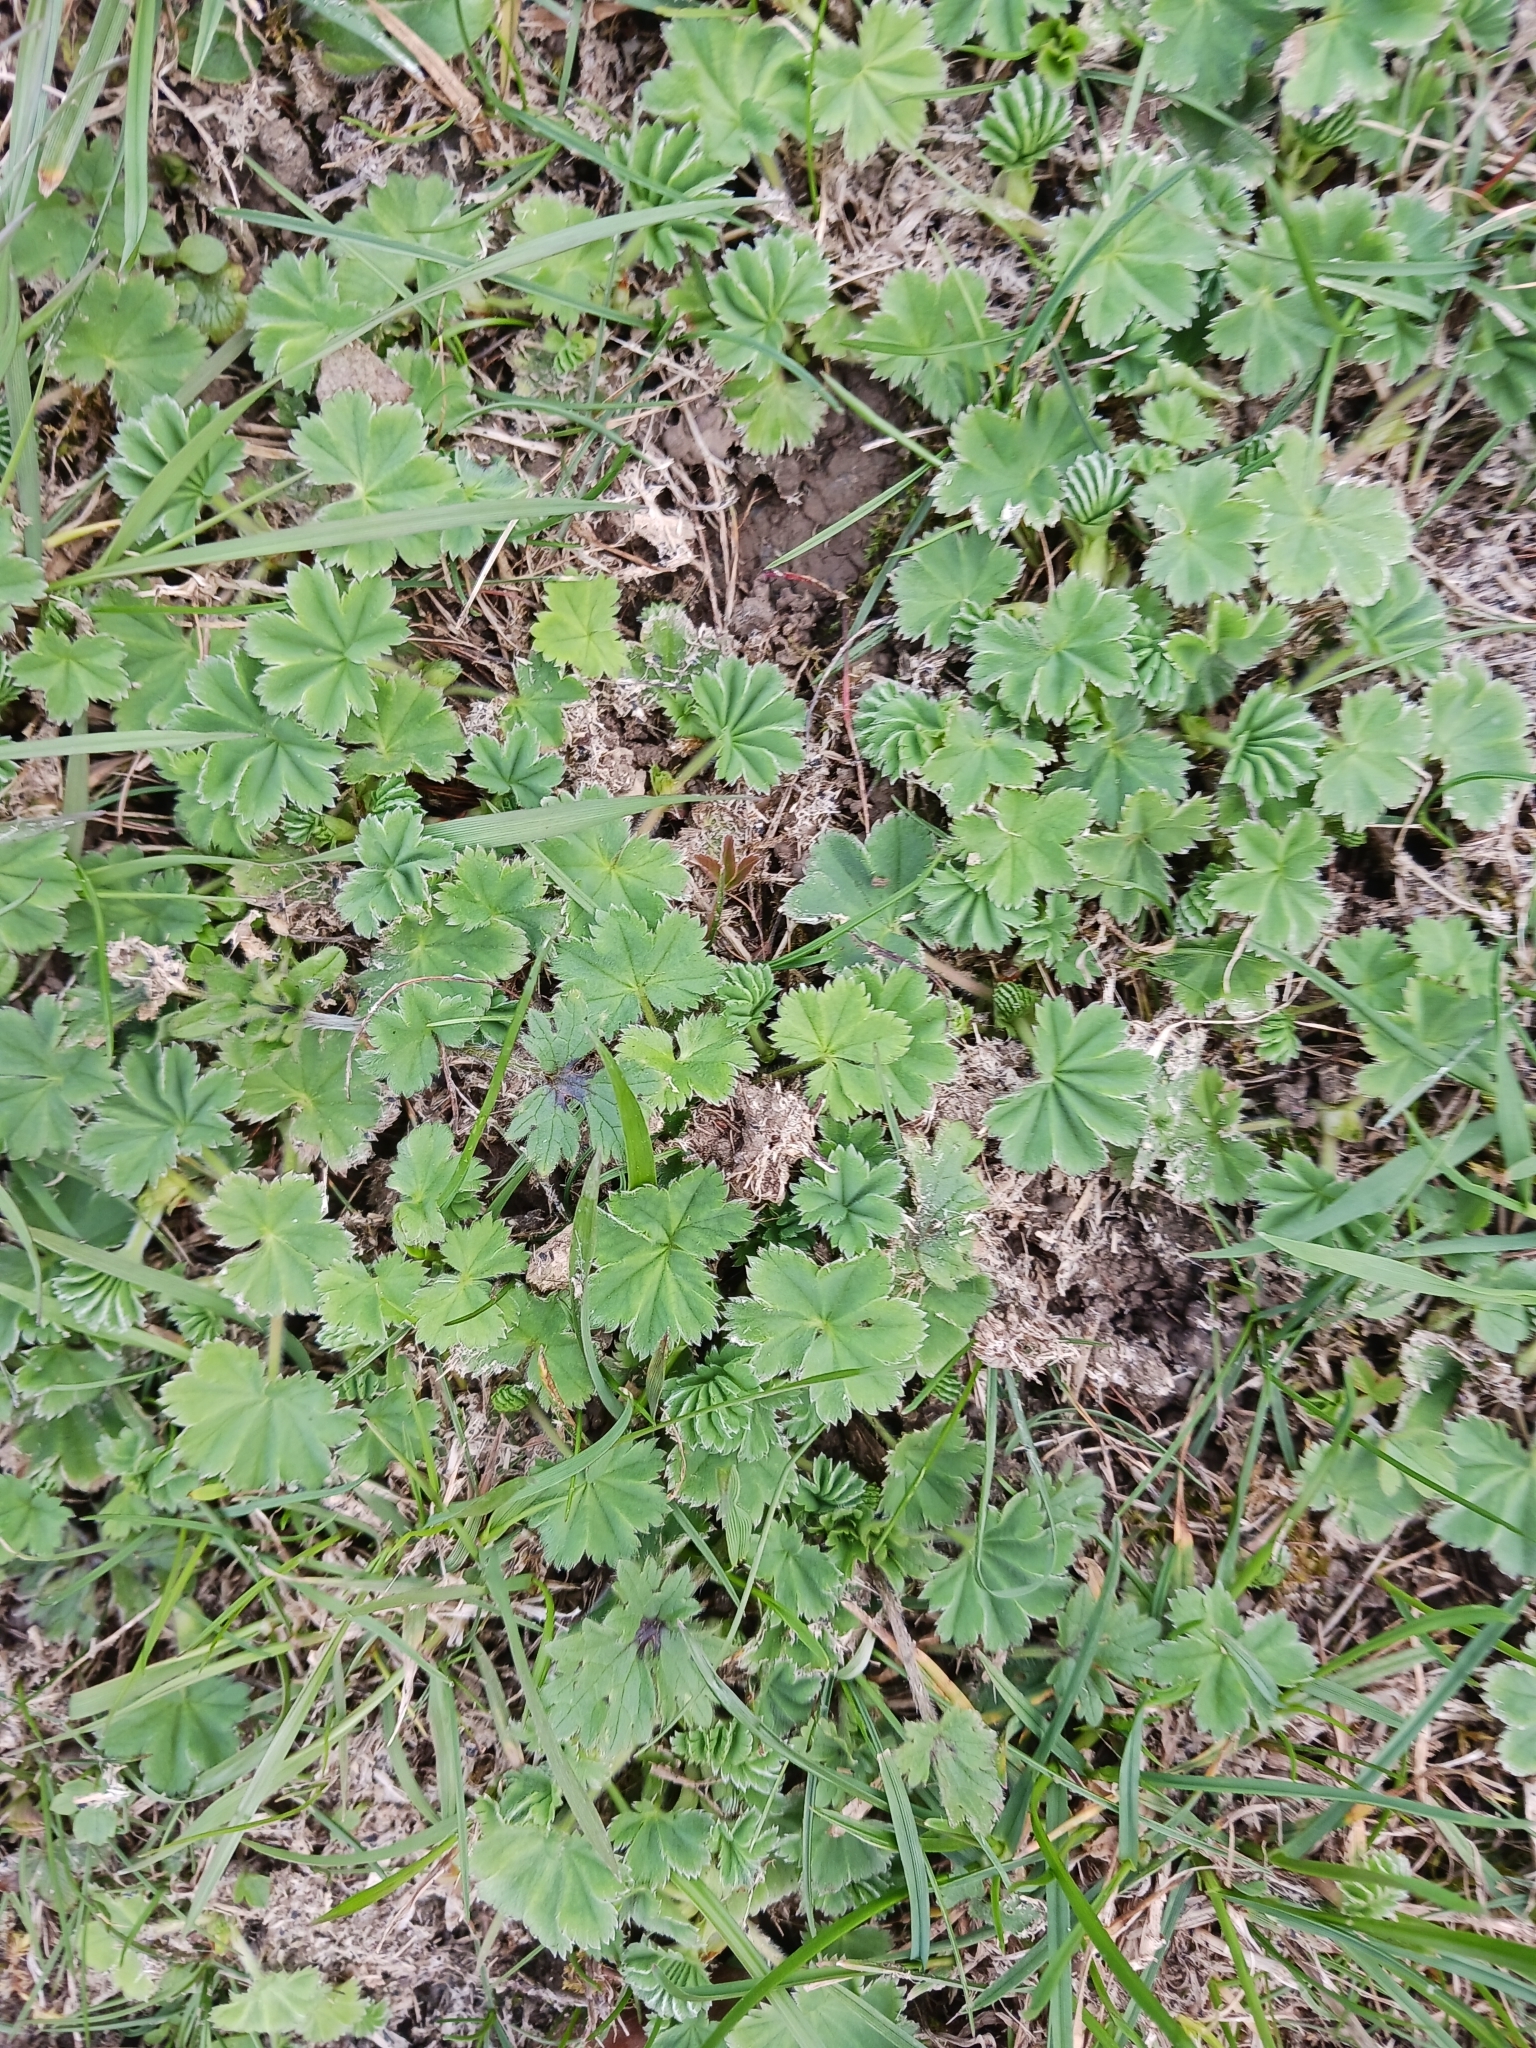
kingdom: Plantae
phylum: Tracheophyta
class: Magnoliopsida
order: Rosales
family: Rosaceae
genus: Alchemilla
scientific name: Alchemilla glaucescens
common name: Silky lady's mantle
